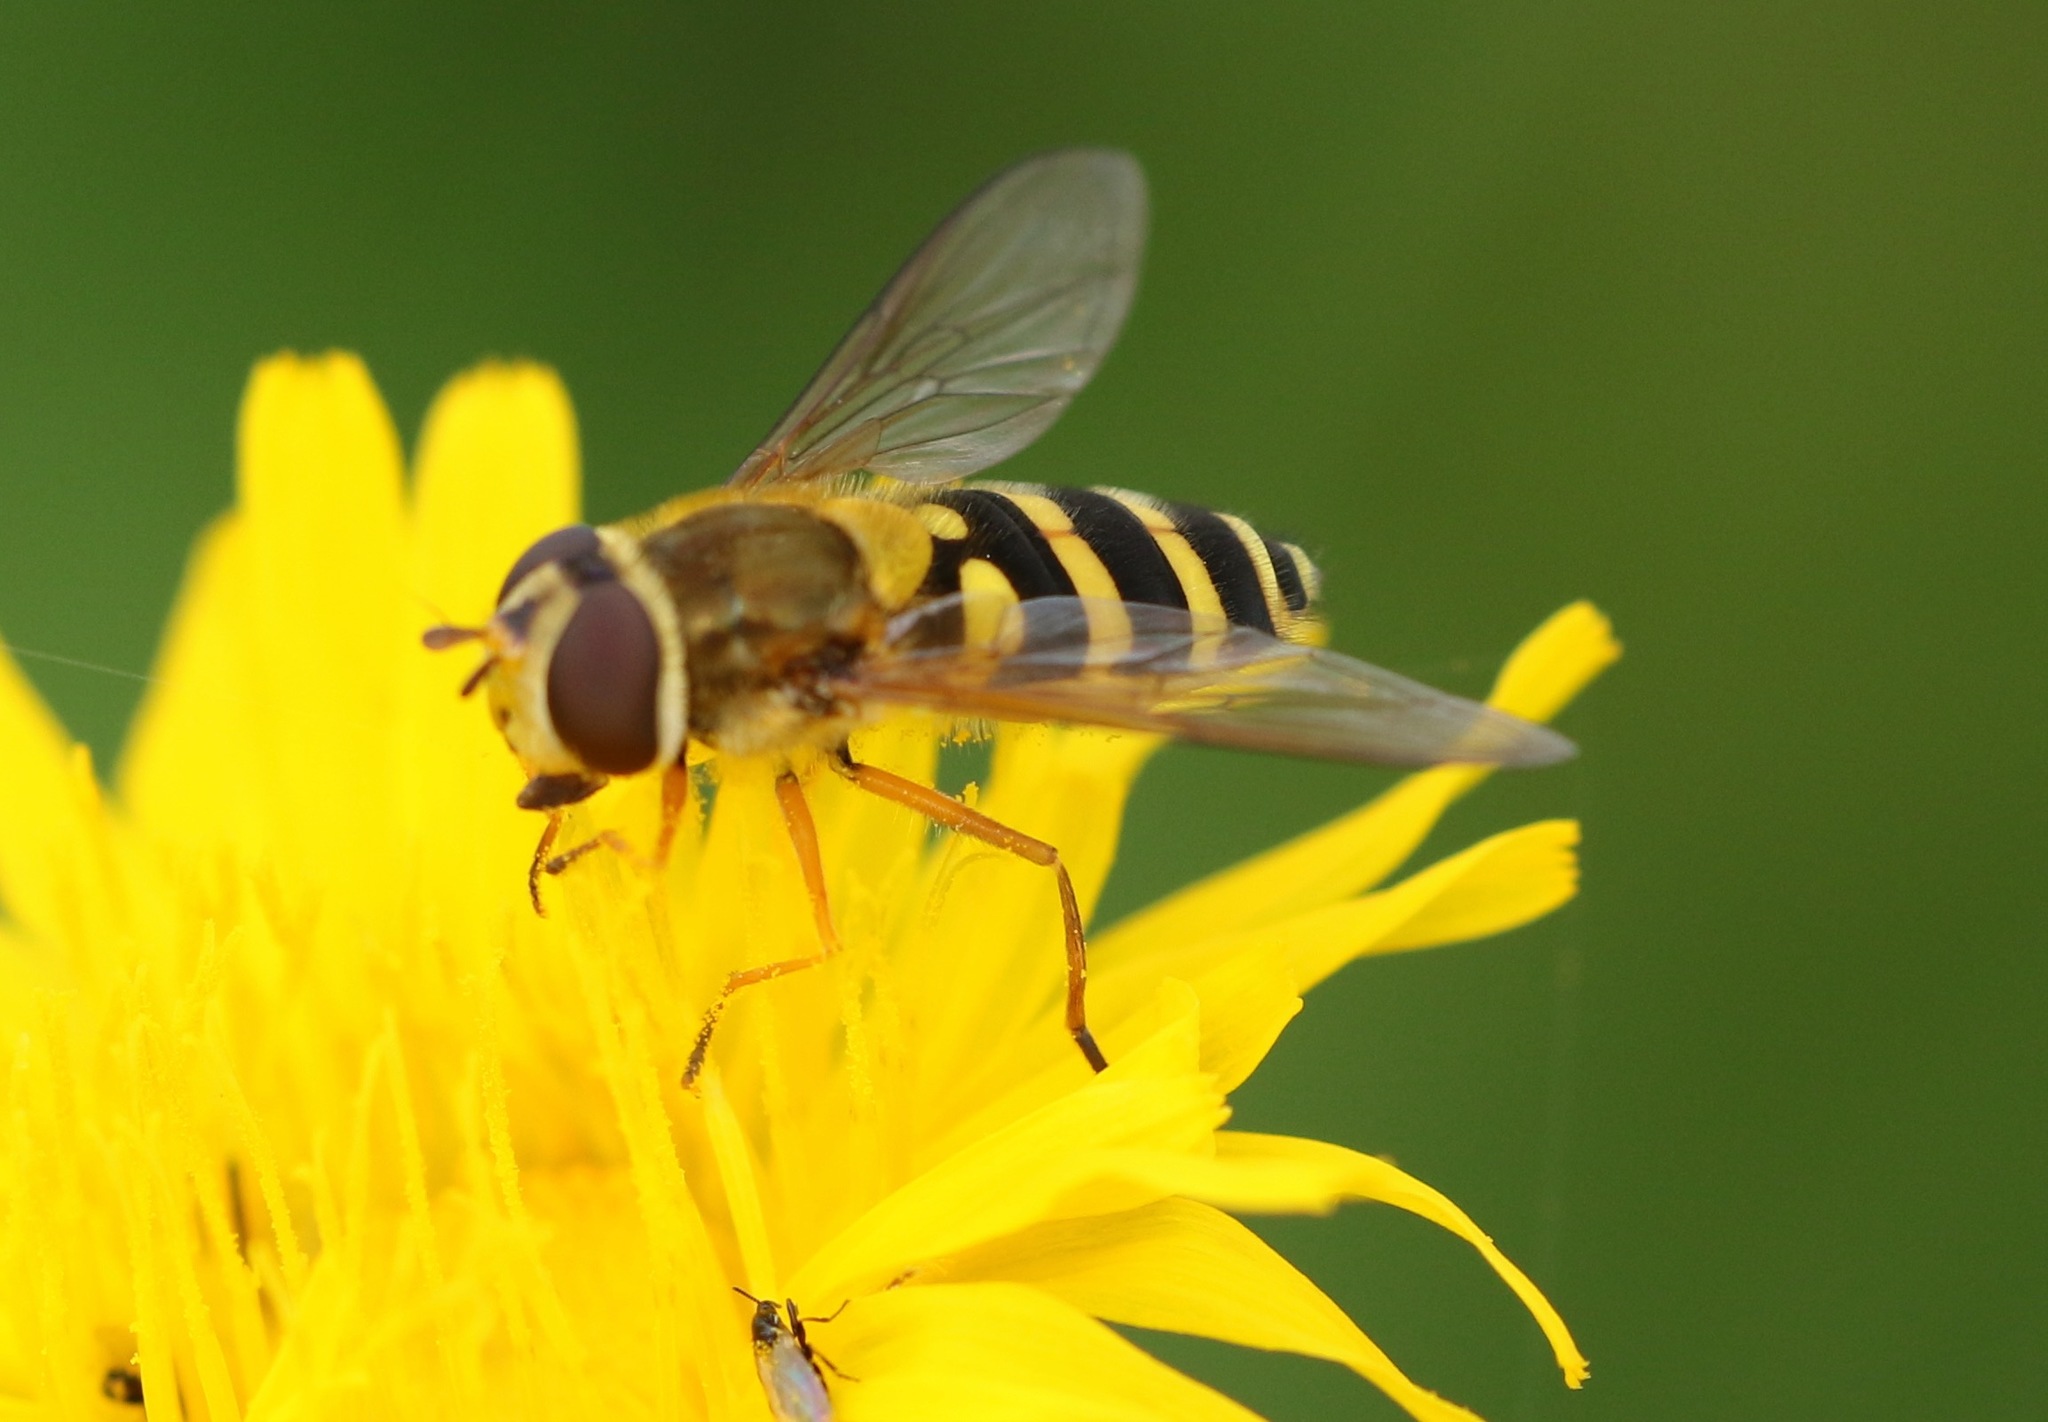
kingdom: Animalia
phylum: Arthropoda
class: Insecta
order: Diptera
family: Syrphidae
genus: Syrphus
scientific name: Syrphus ribesii
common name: Common flower fly
